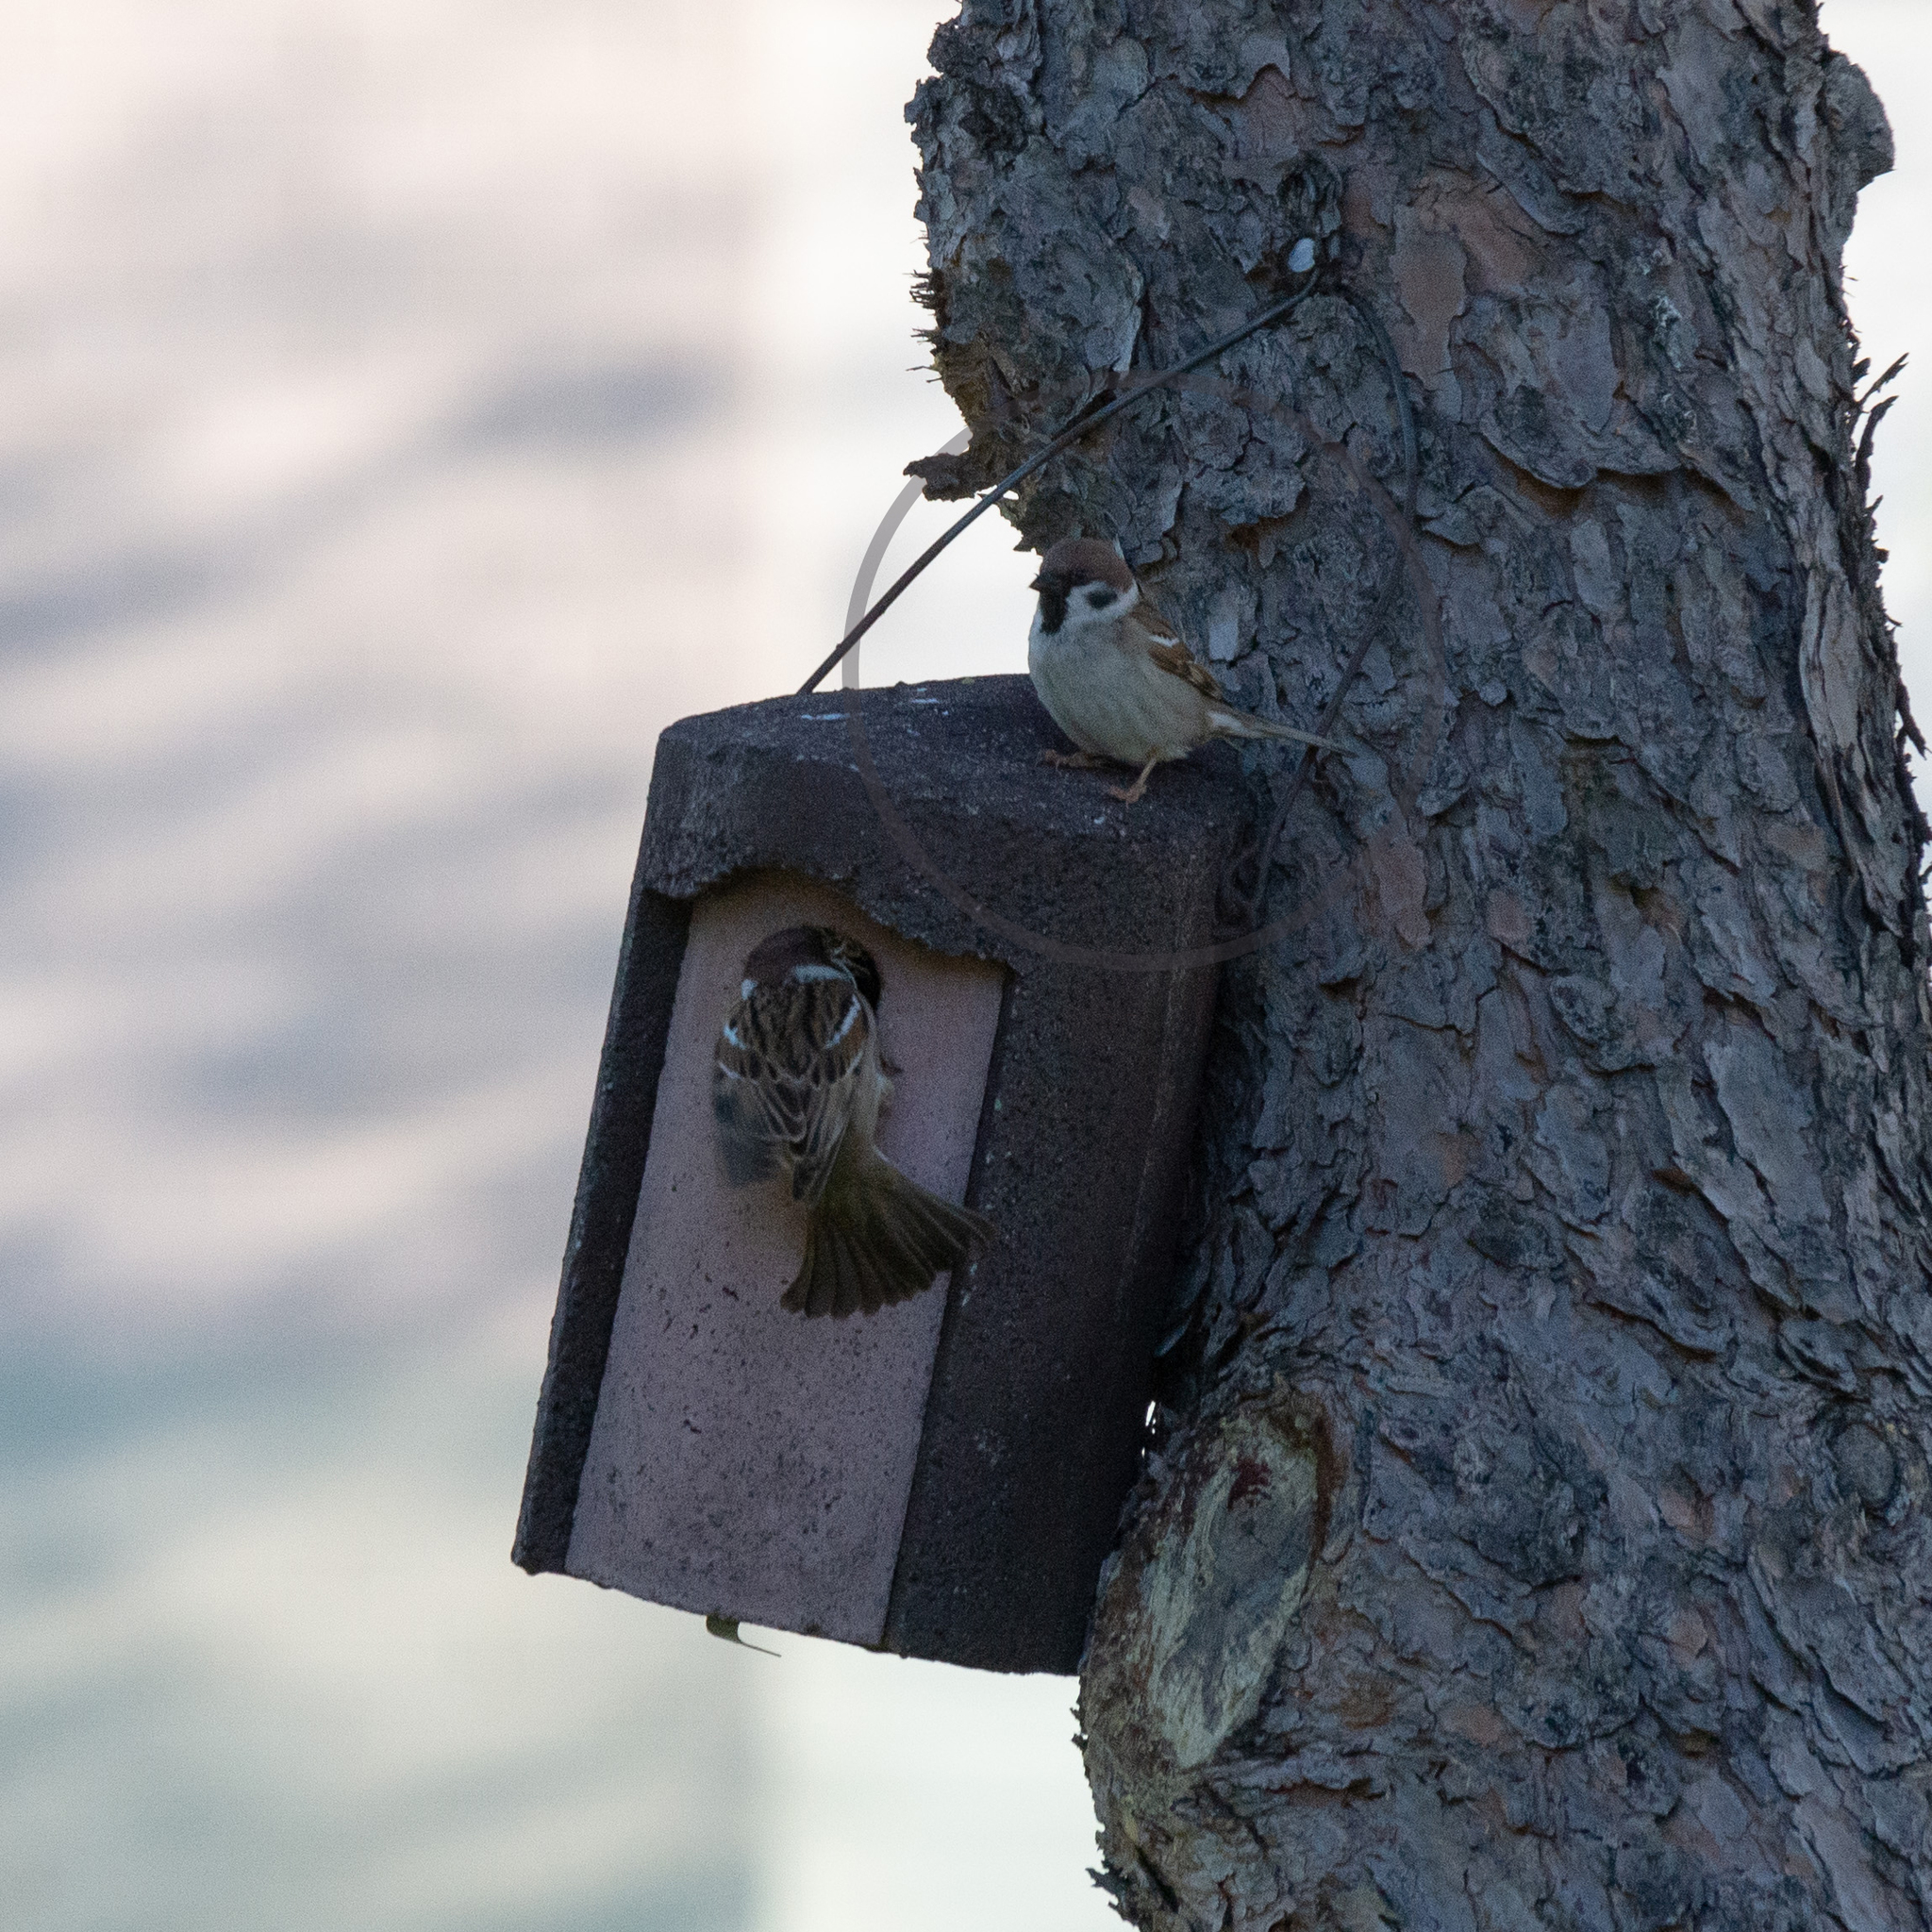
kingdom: Animalia
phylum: Chordata
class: Aves
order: Passeriformes
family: Passeridae
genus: Passer
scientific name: Passer montanus
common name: Eurasian tree sparrow
